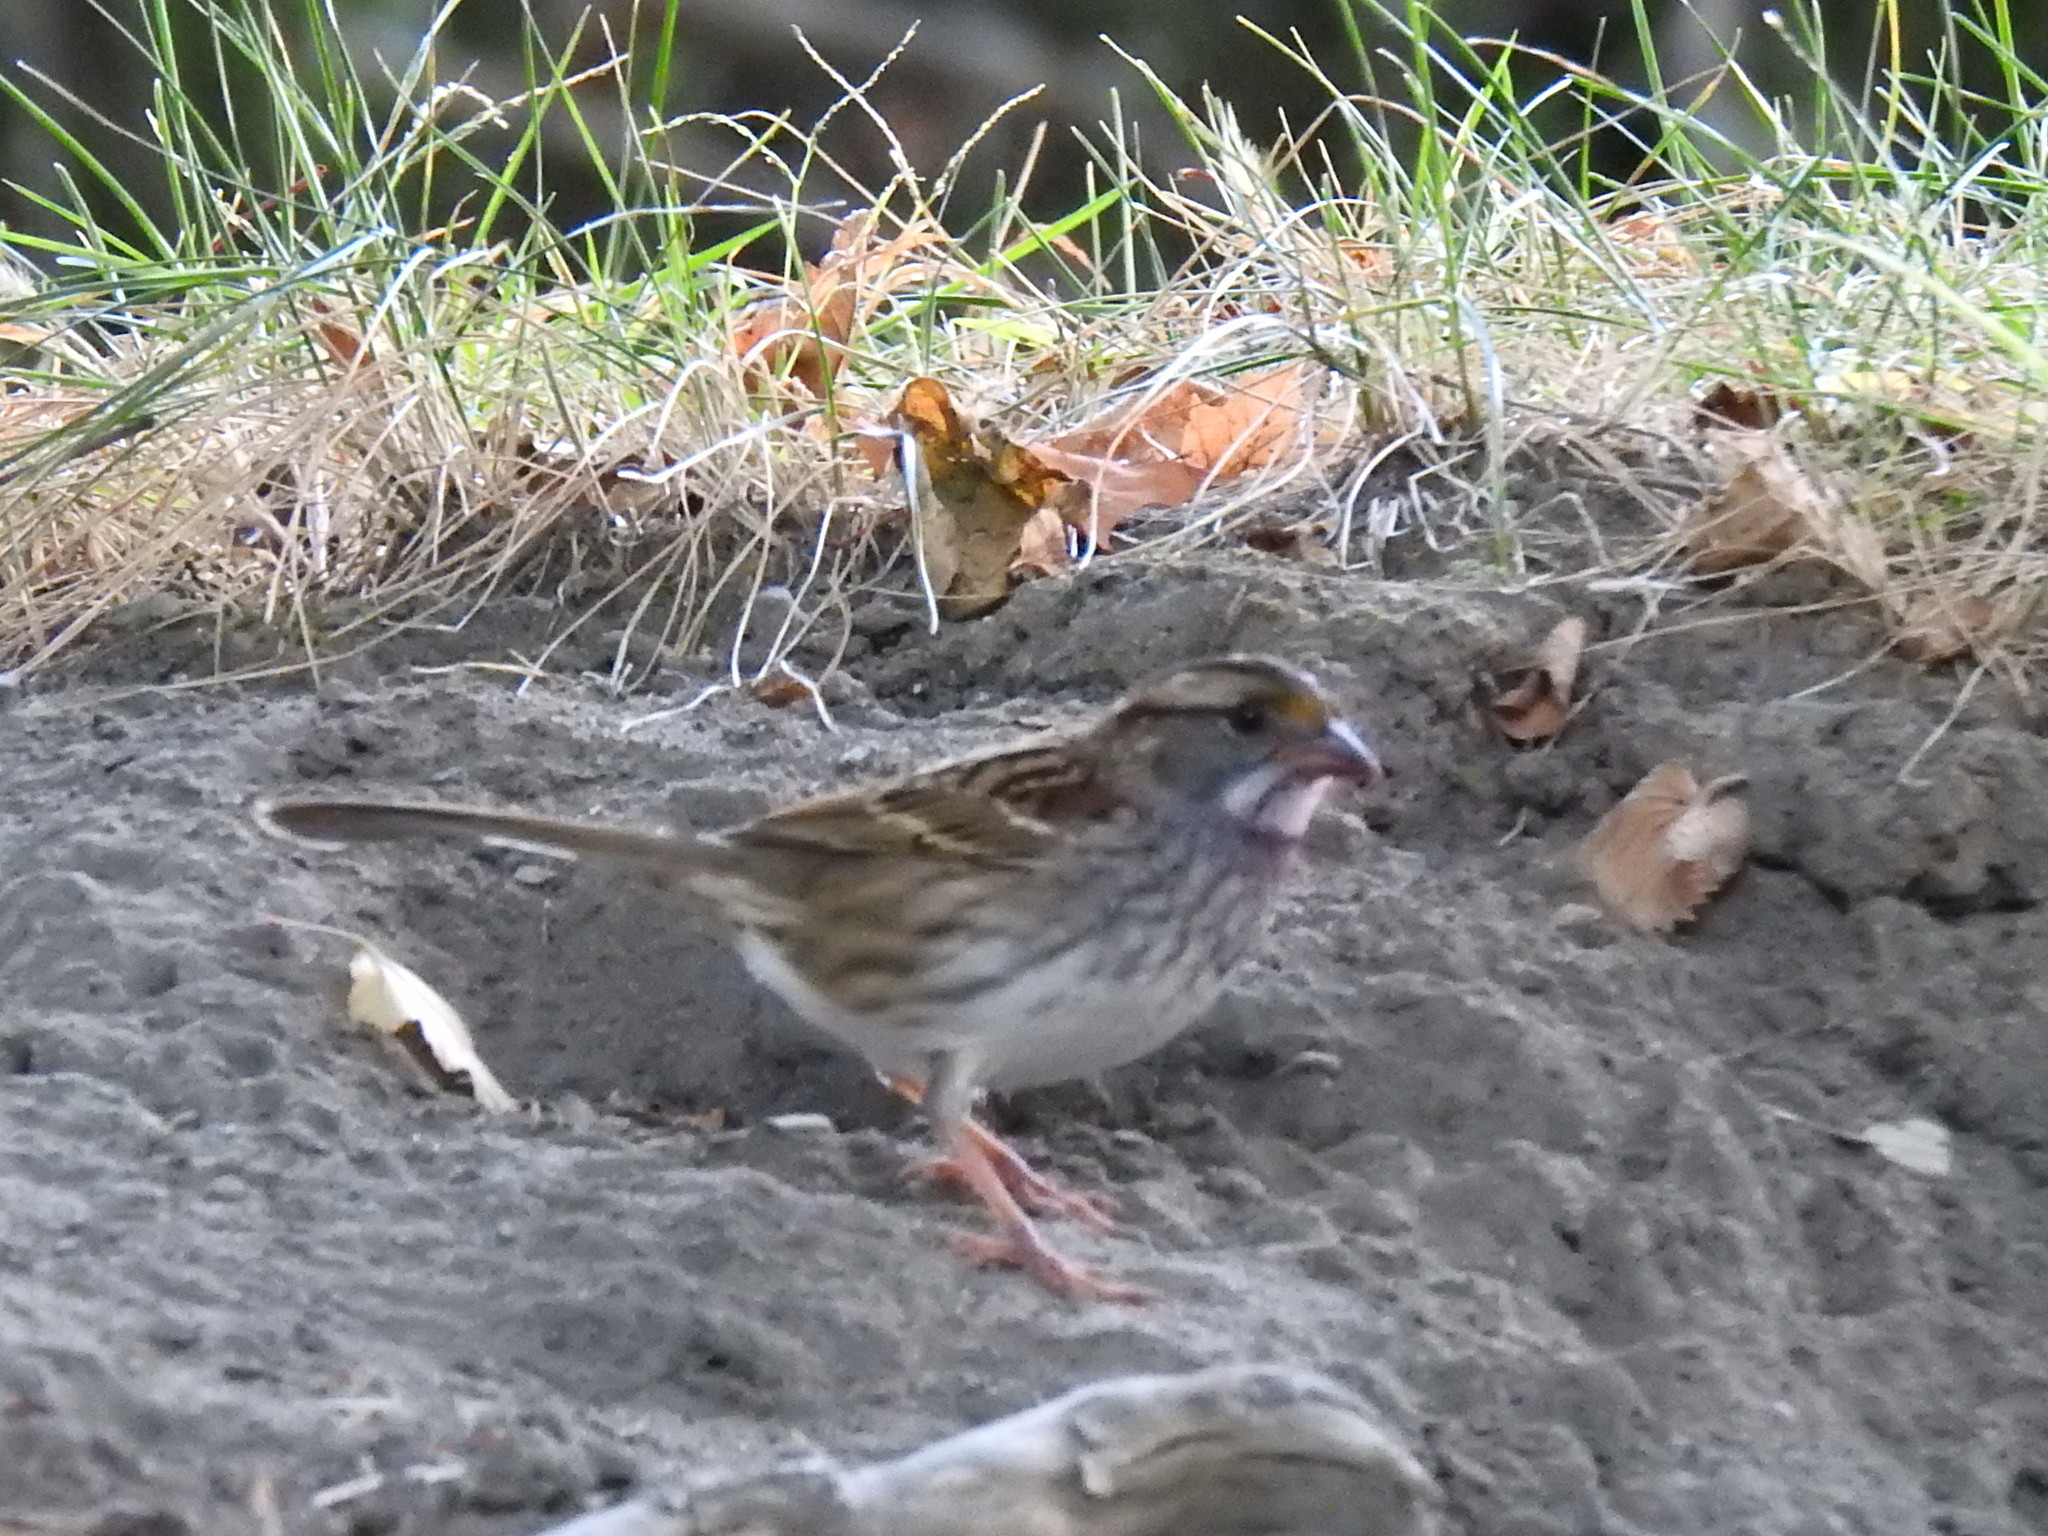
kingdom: Animalia
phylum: Chordata
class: Aves
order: Passeriformes
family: Passerellidae
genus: Zonotrichia
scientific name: Zonotrichia albicollis
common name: White-throated sparrow
